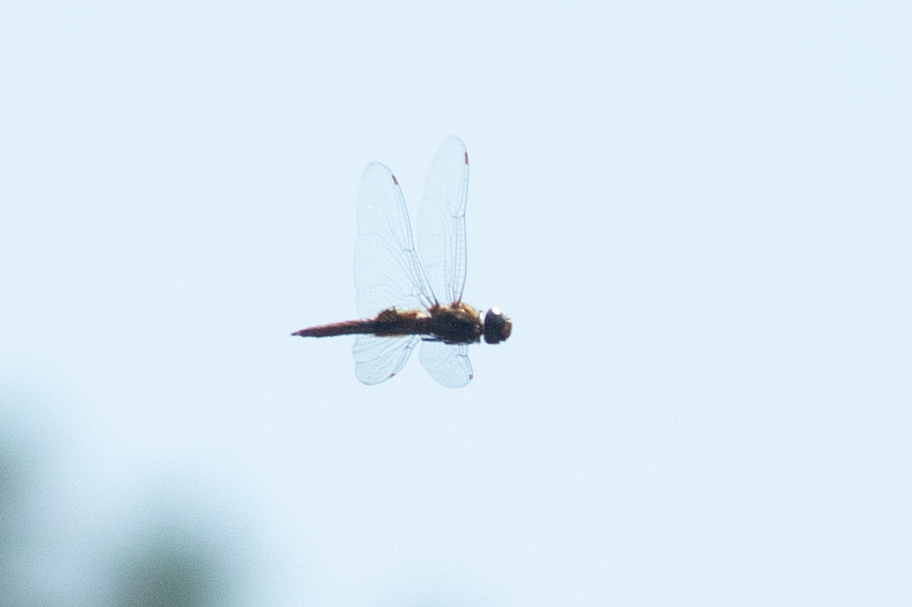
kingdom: Animalia
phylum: Arthropoda
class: Insecta
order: Odonata
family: Libellulidae
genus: Pantala
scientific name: Pantala hymenaea
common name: Spot-winged glider
